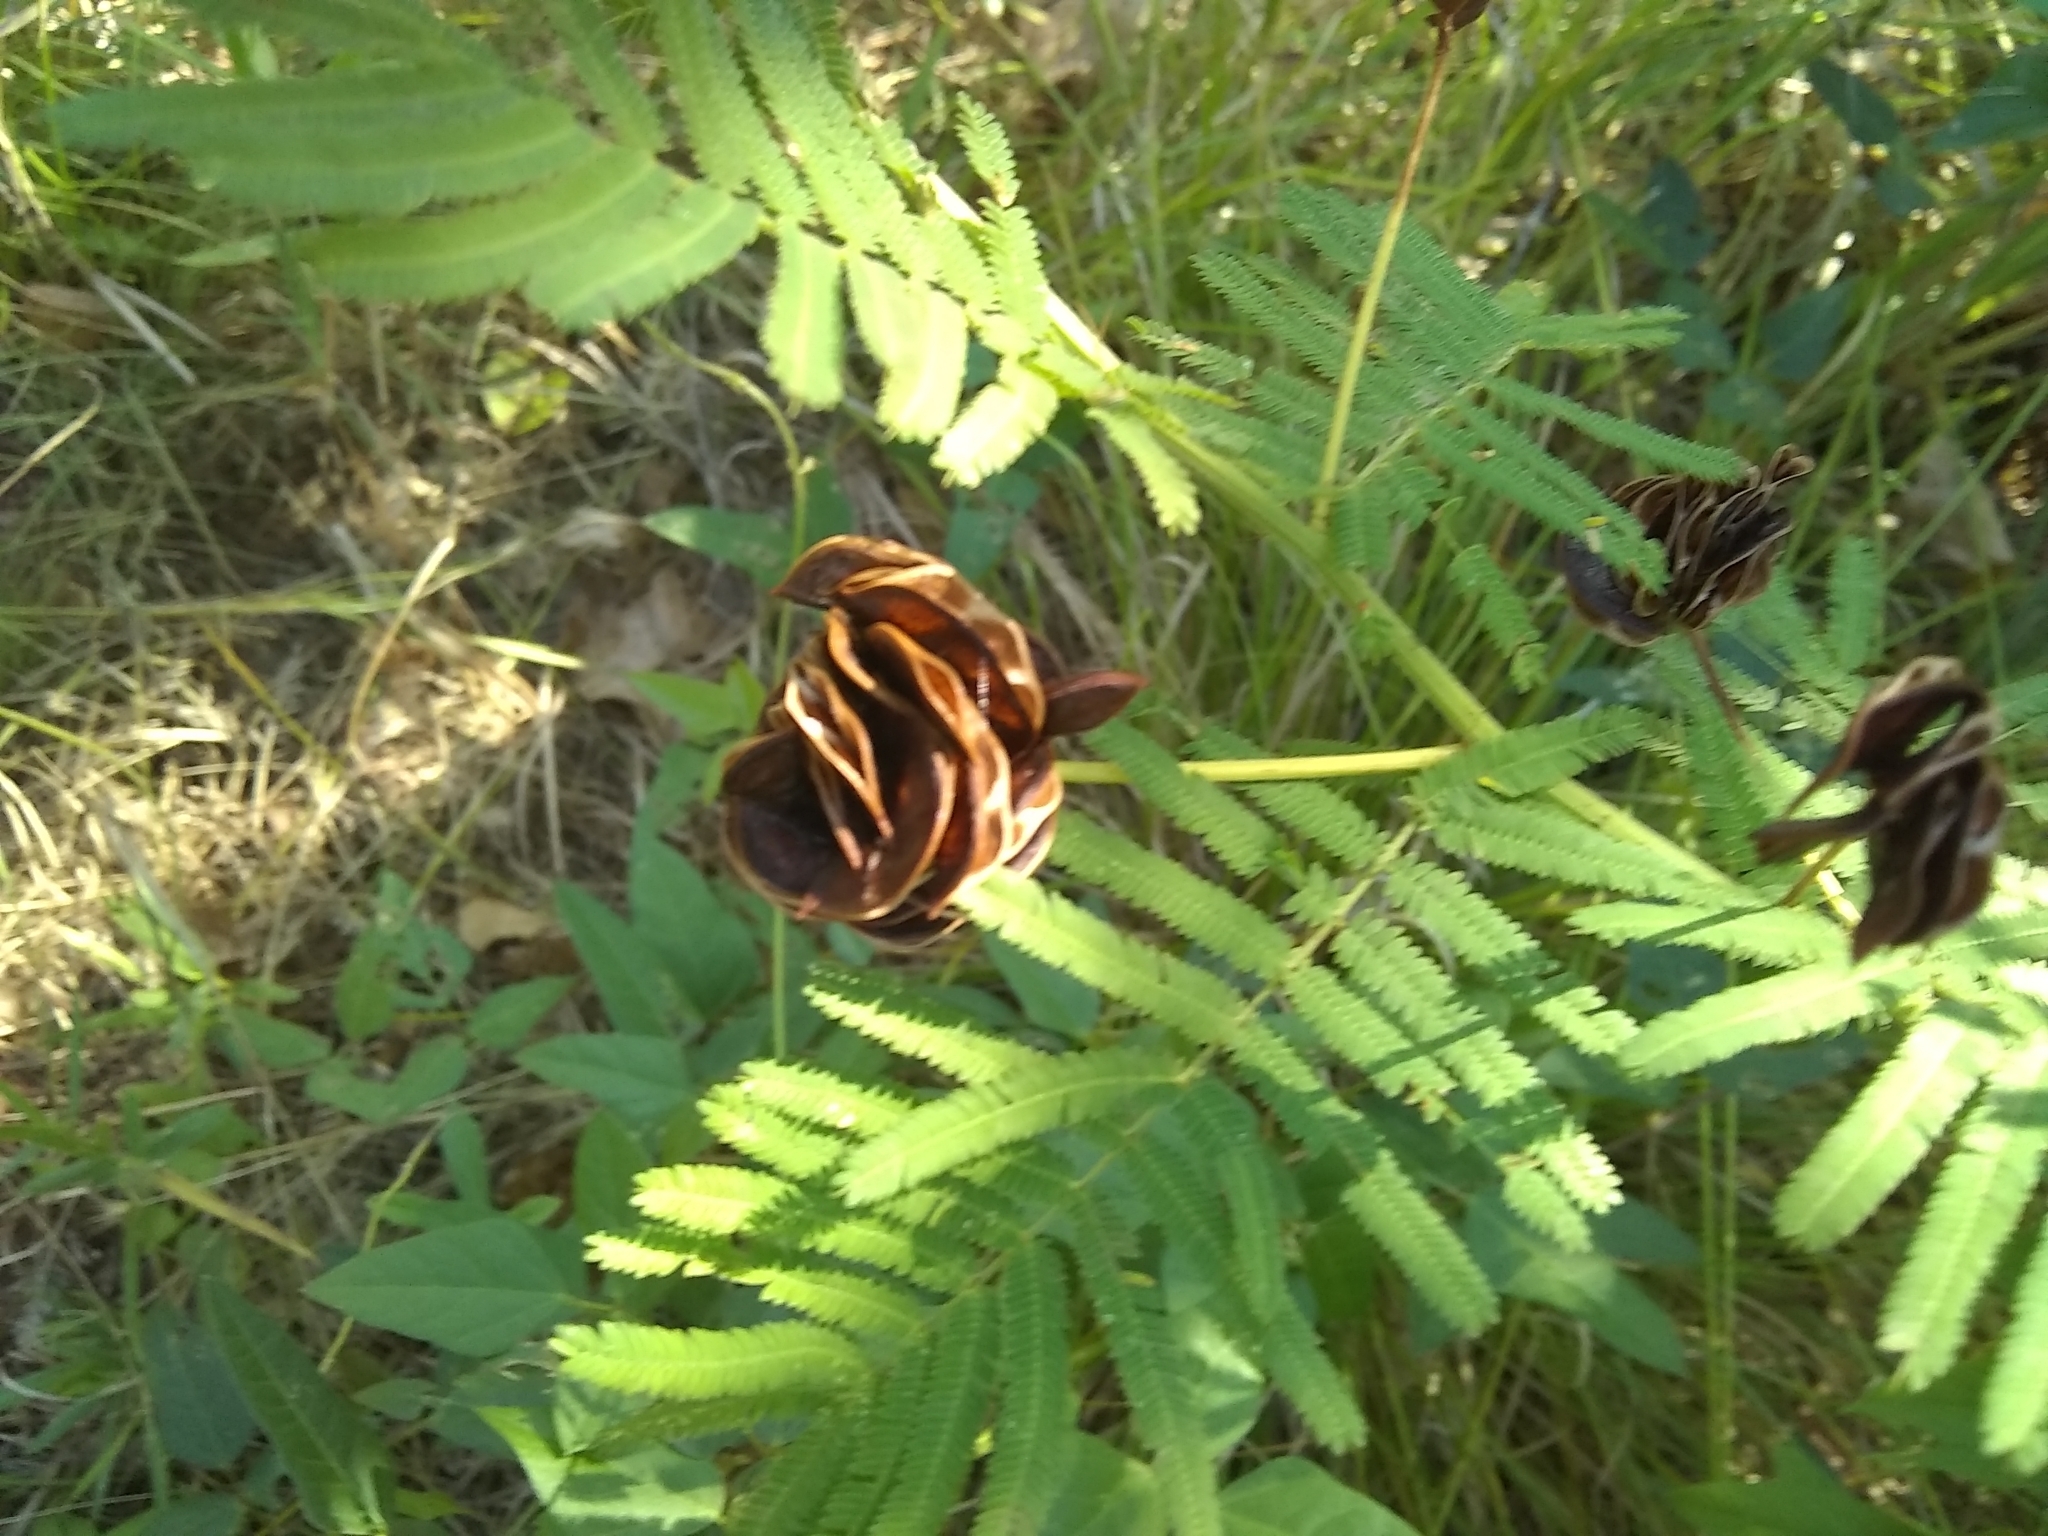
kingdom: Plantae
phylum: Tracheophyta
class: Magnoliopsida
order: Fabales
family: Fabaceae
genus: Desmanthus
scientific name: Desmanthus illinoensis
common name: Illinois bundle-flower
